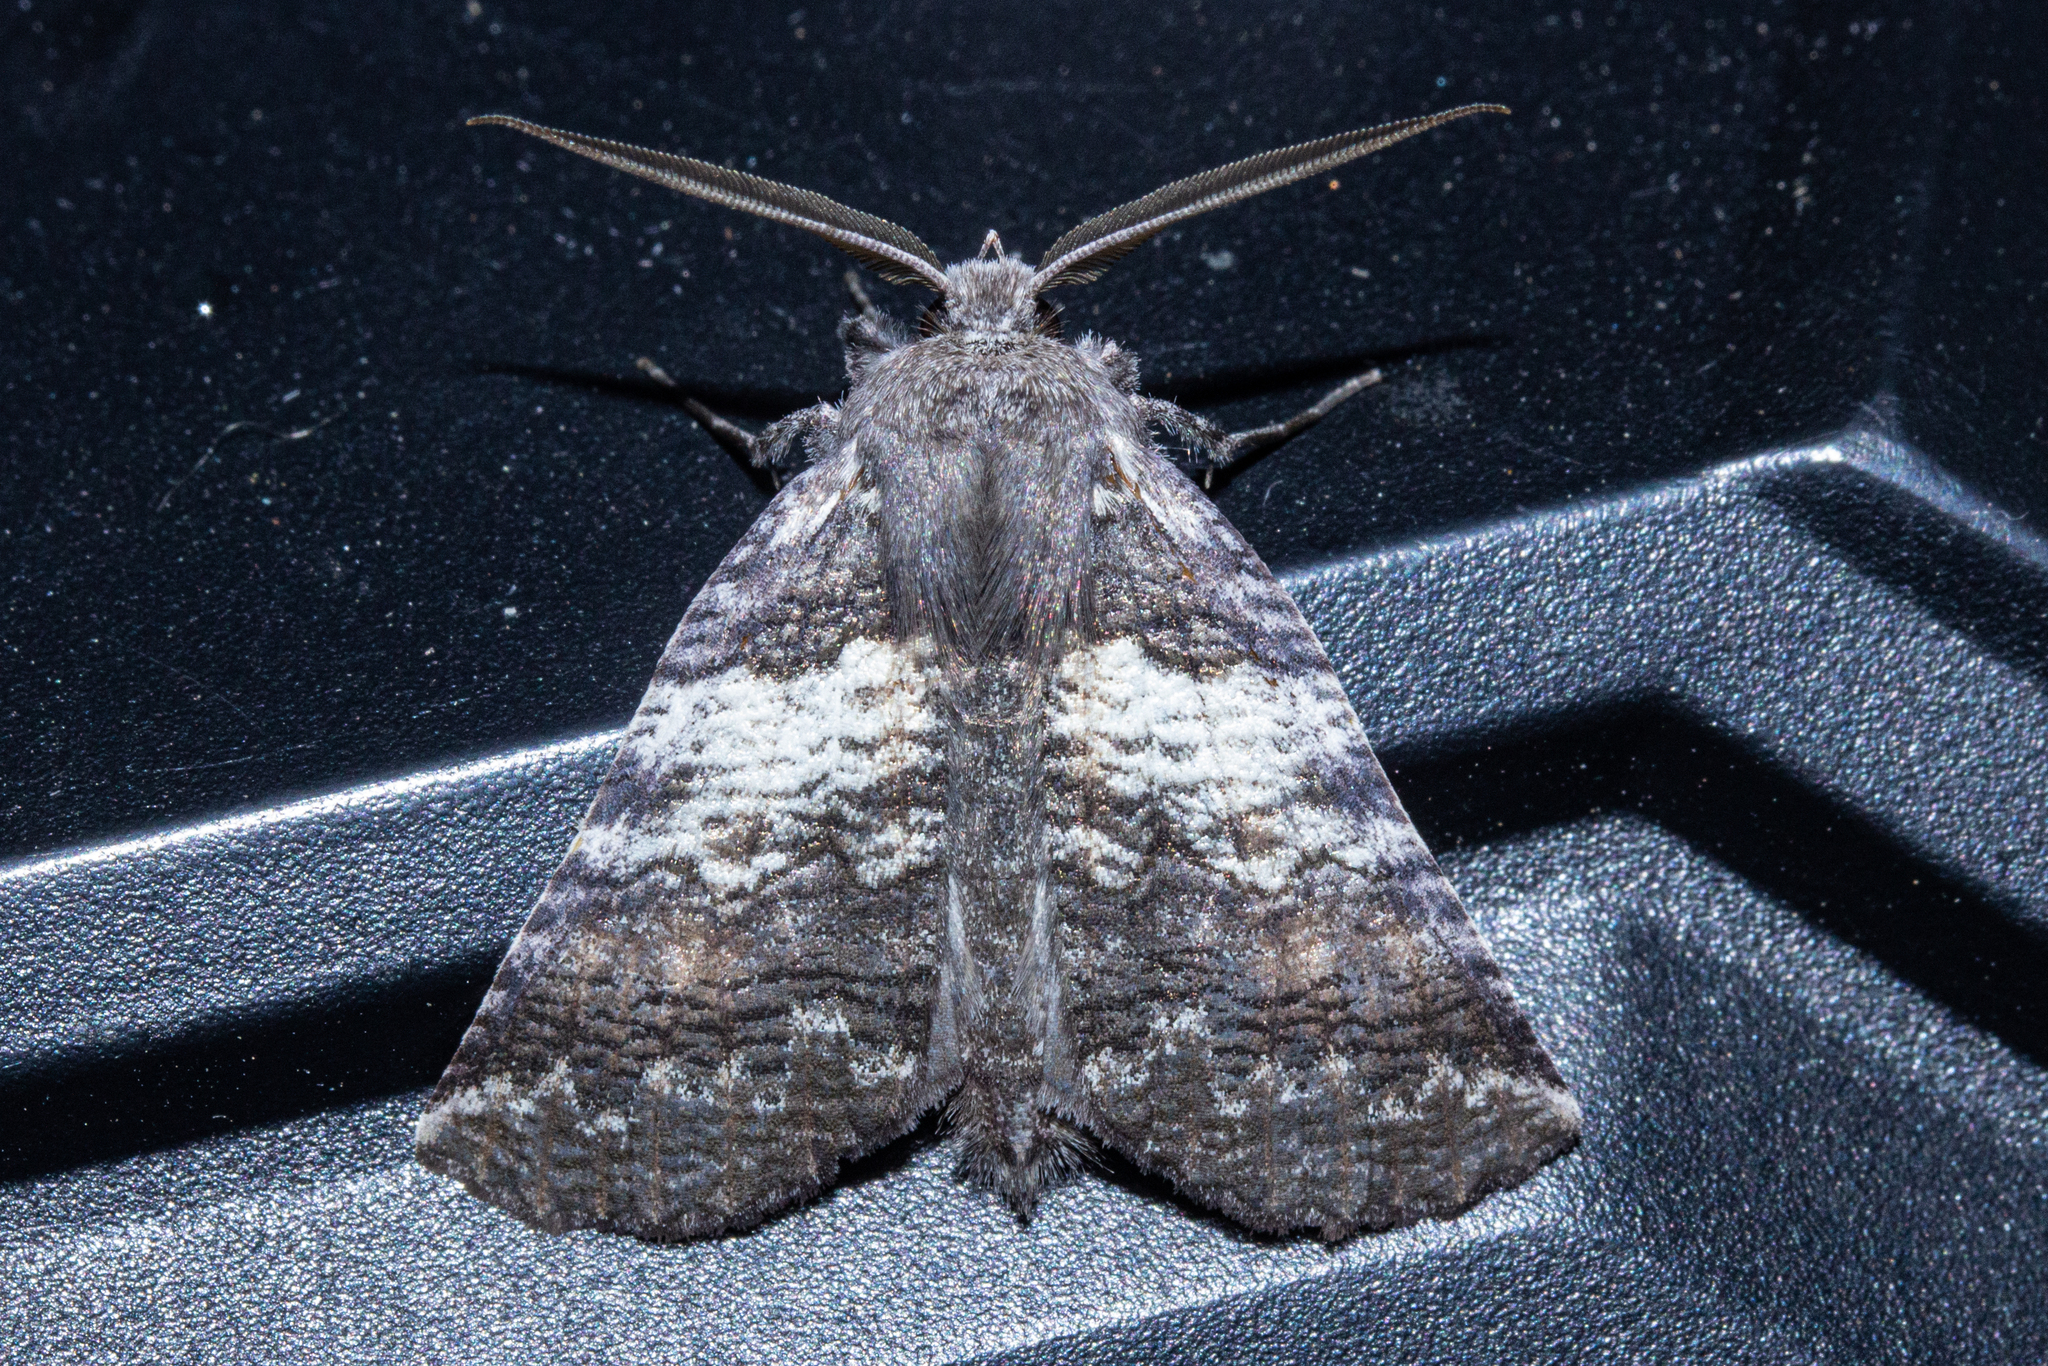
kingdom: Animalia
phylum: Arthropoda
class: Insecta
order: Lepidoptera
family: Geometridae
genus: Declana
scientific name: Declana
